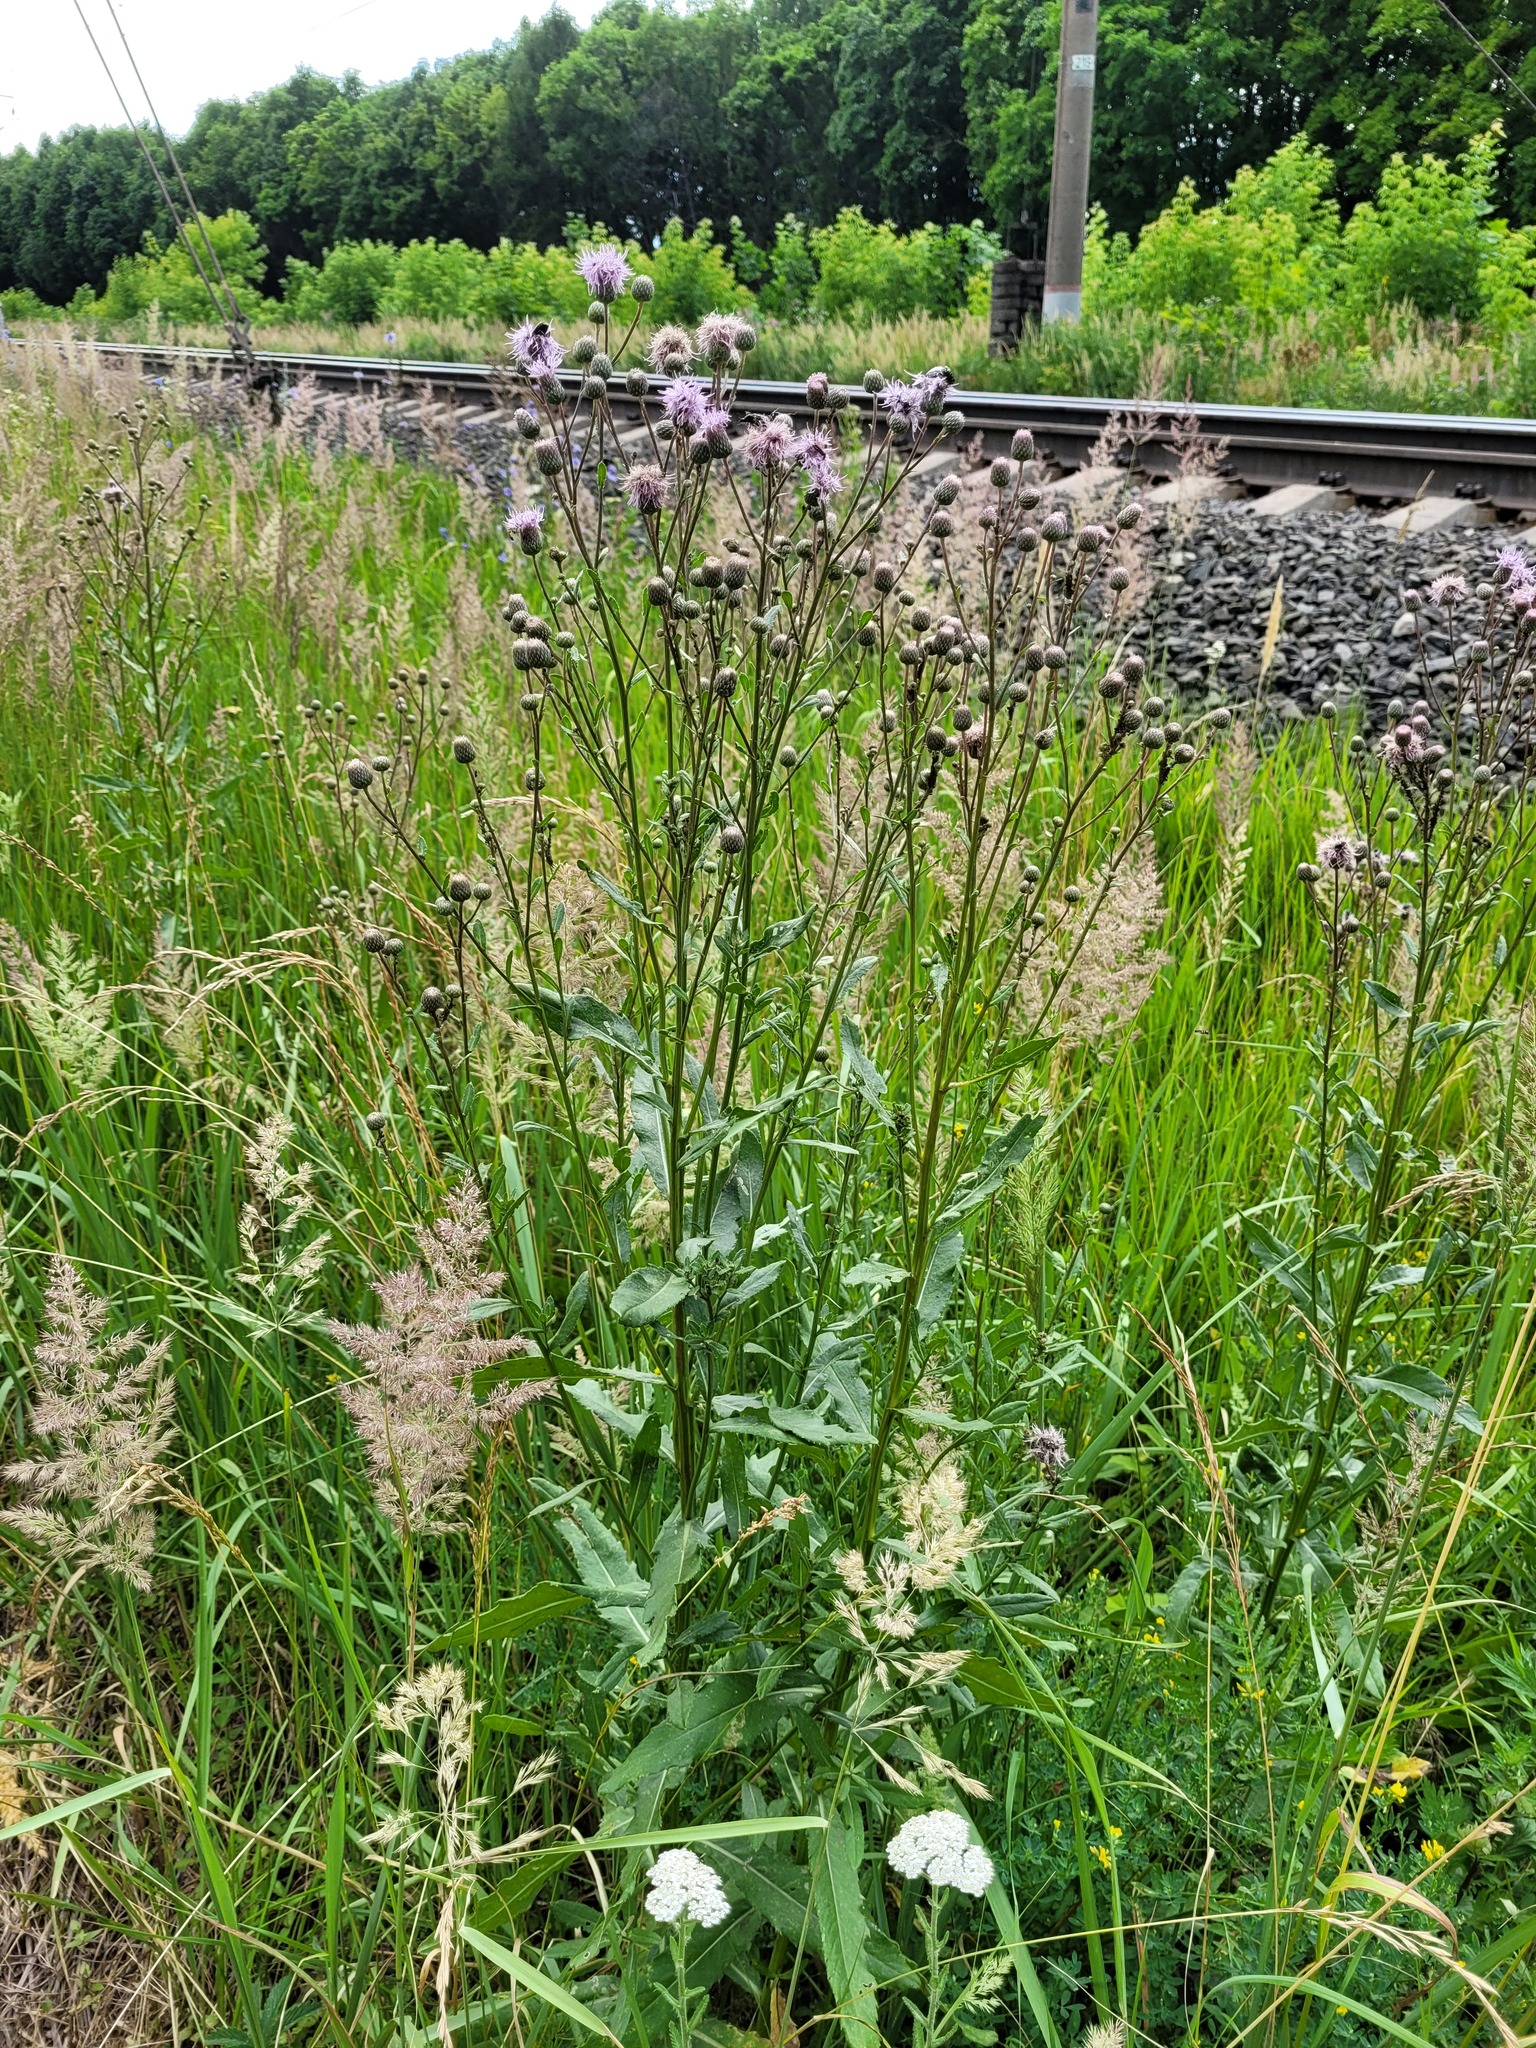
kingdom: Plantae
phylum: Tracheophyta
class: Magnoliopsida
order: Asterales
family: Asteraceae
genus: Cirsium
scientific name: Cirsium arvense
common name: Creeping thistle
